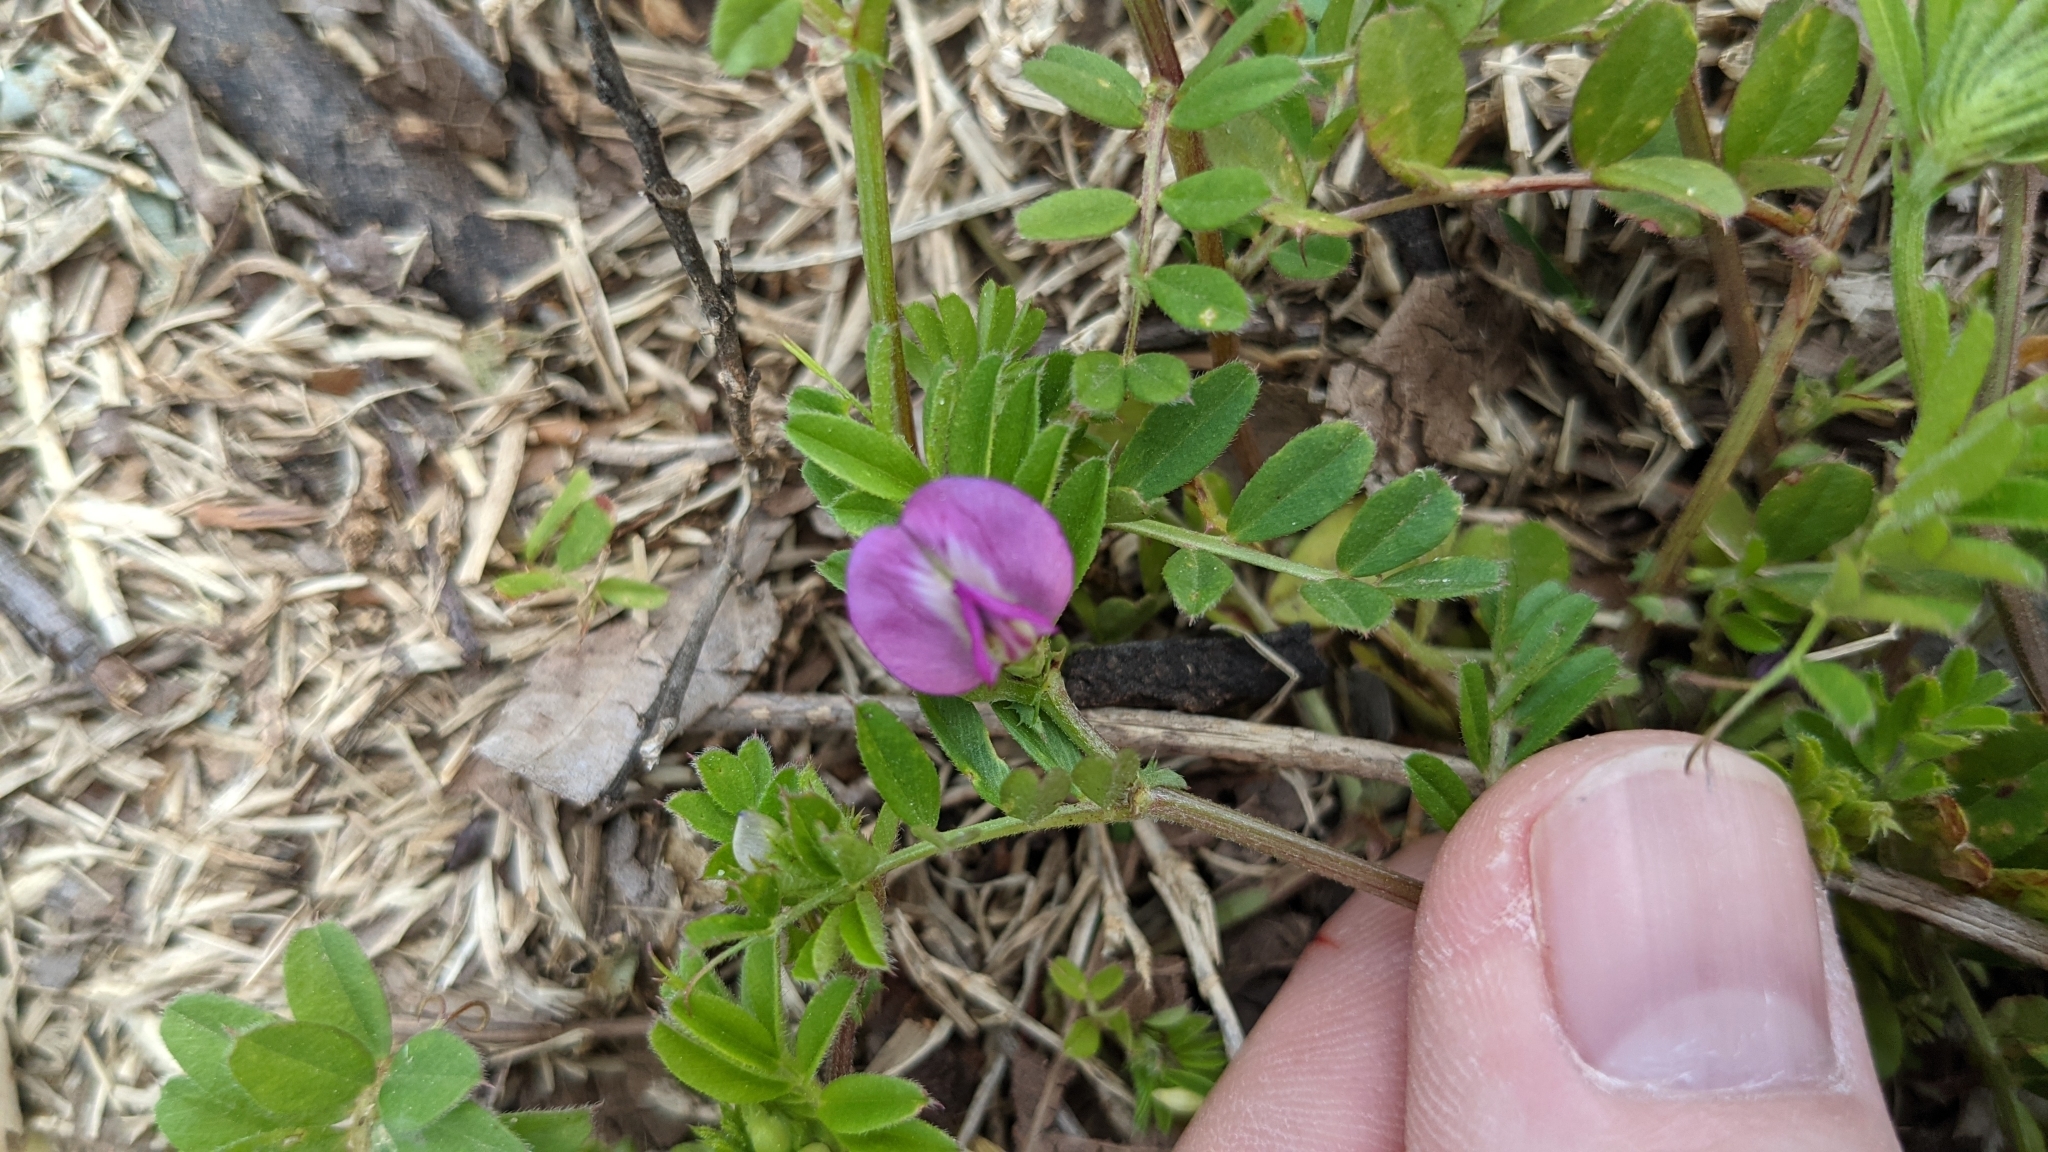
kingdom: Plantae
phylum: Tracheophyta
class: Magnoliopsida
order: Fabales
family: Fabaceae
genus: Vicia
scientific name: Vicia sativa
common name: Garden vetch
